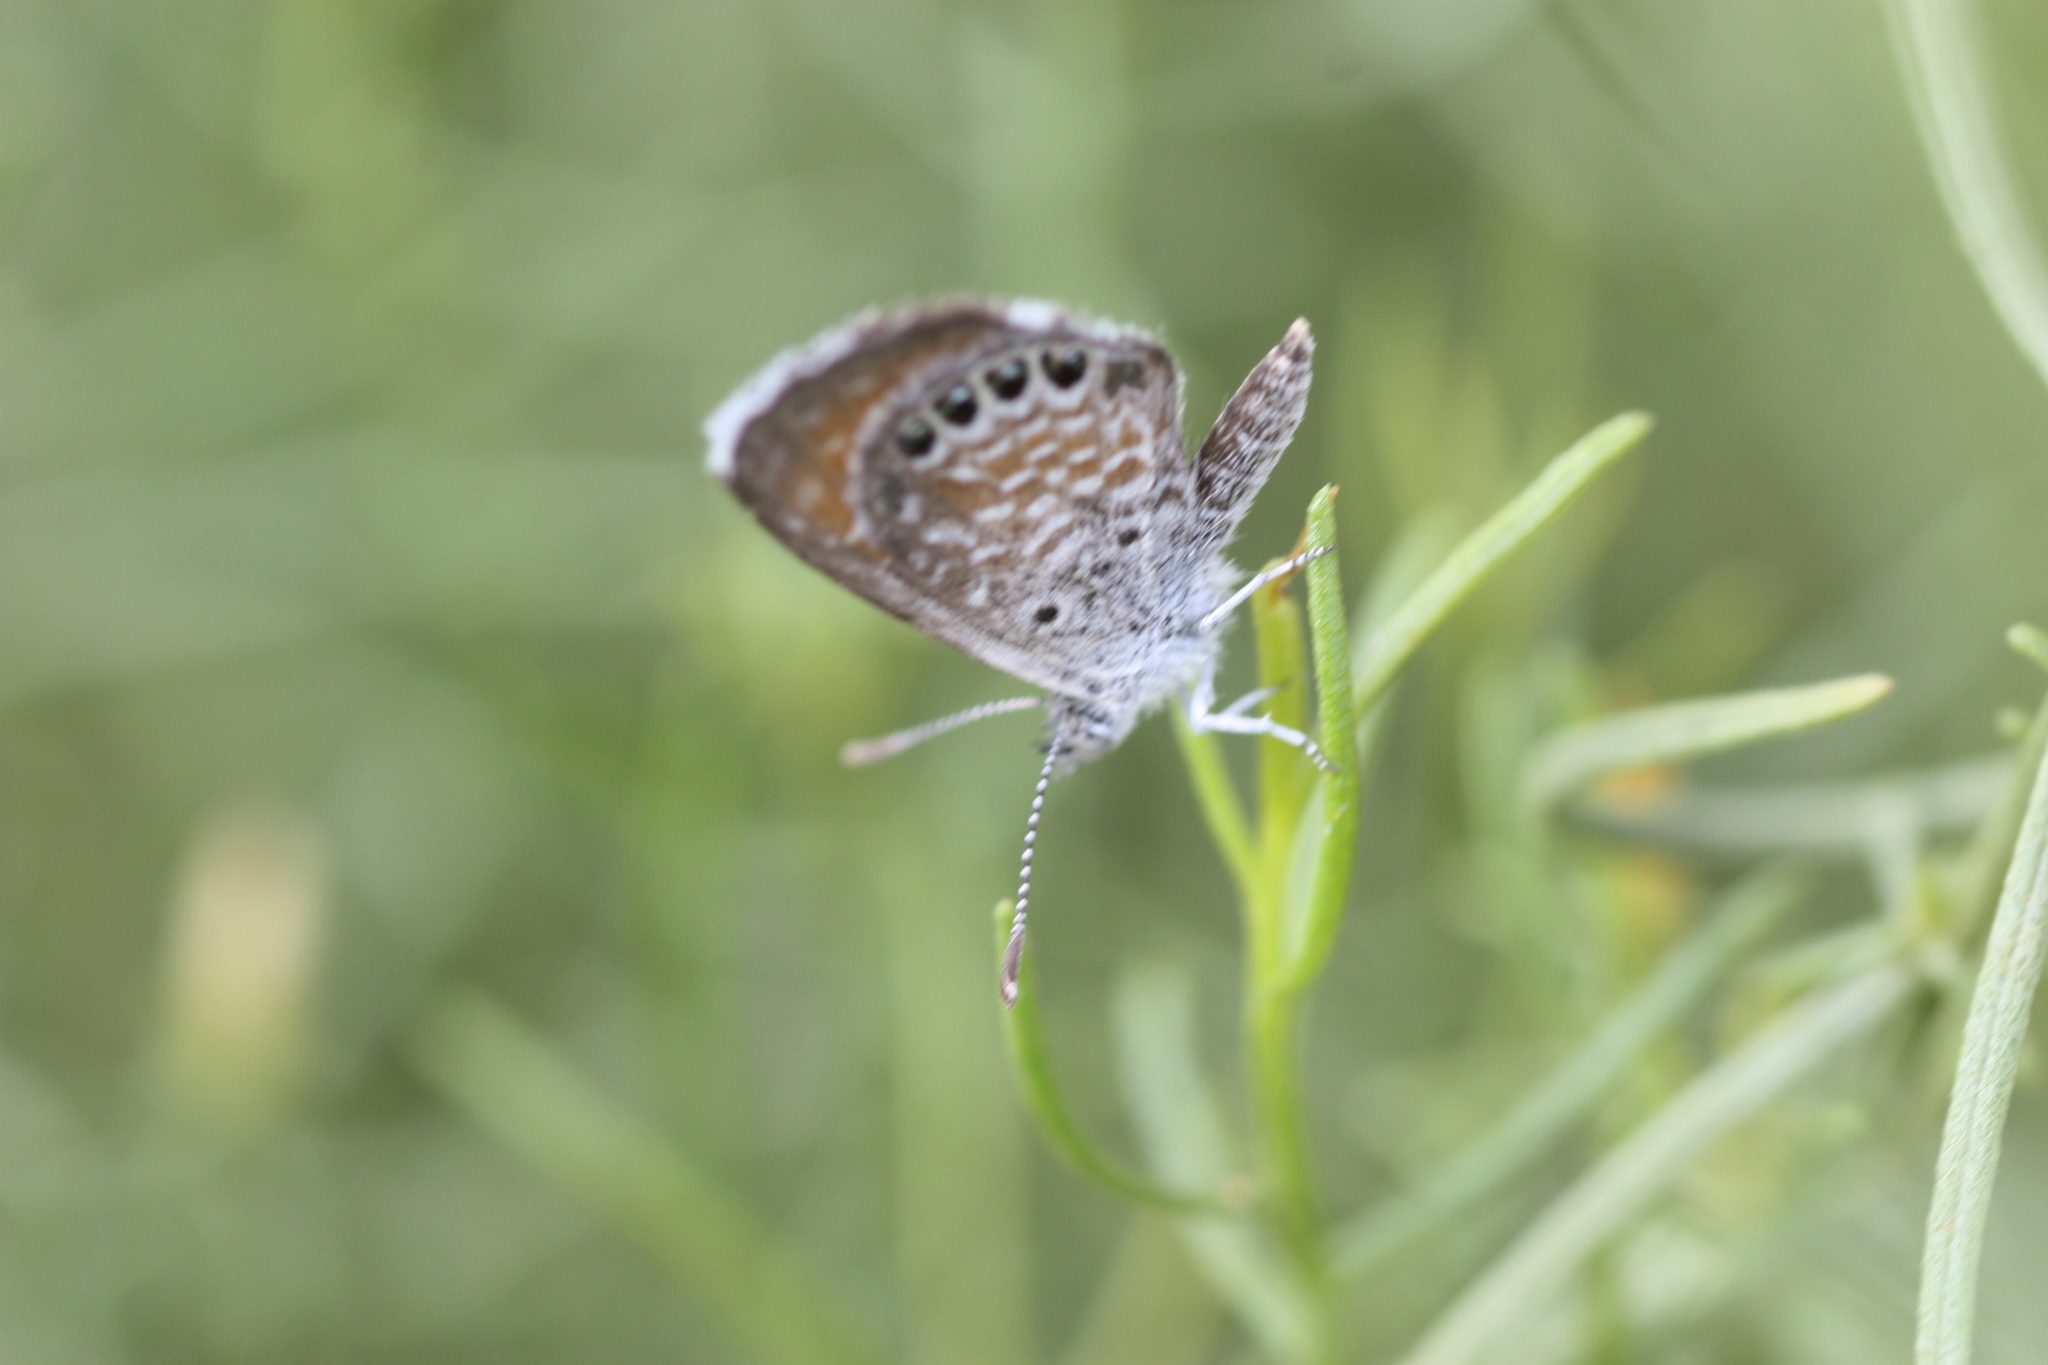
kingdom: Animalia
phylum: Arthropoda
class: Insecta
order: Lepidoptera
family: Lycaenidae
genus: Brephidium
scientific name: Brephidium exilis
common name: Pygmy blue
